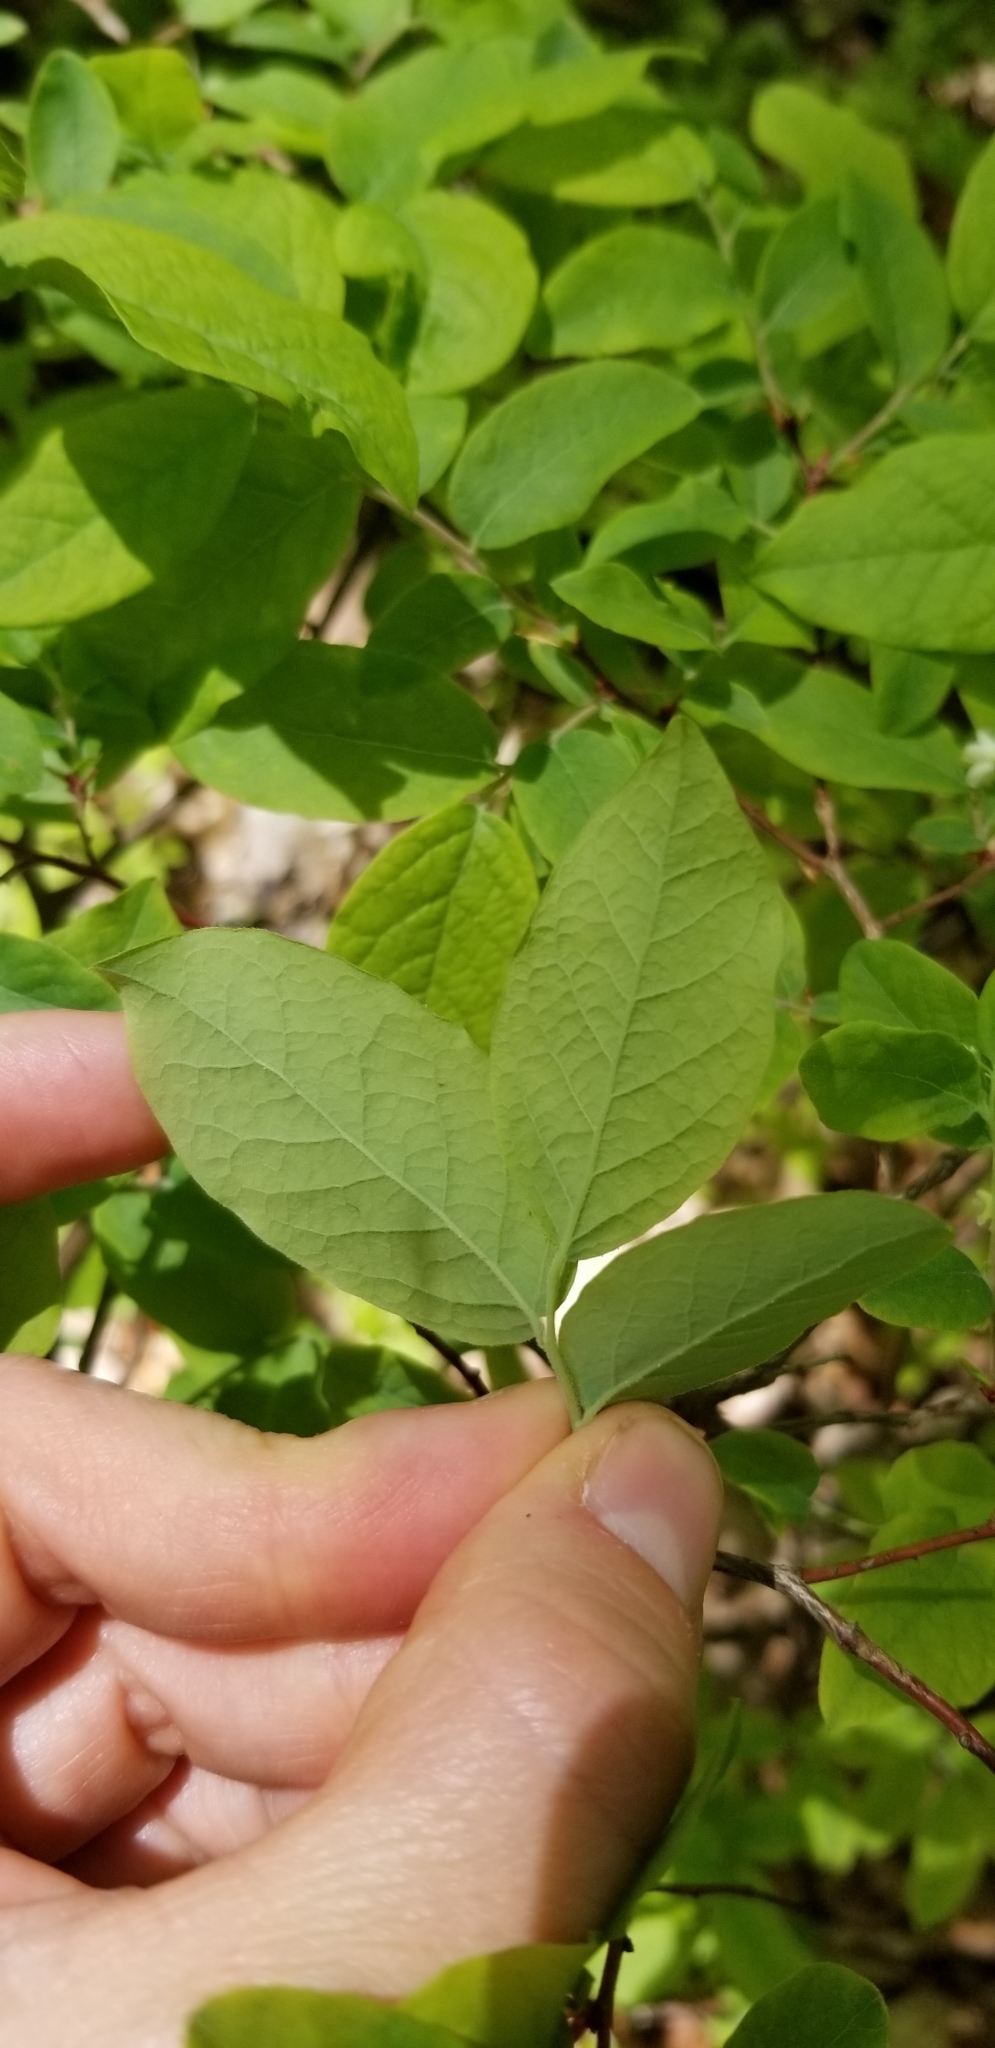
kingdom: Plantae
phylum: Tracheophyta
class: Magnoliopsida
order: Ericales
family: Ericaceae
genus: Vaccinium
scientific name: Vaccinium stamineum
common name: Deerberry
